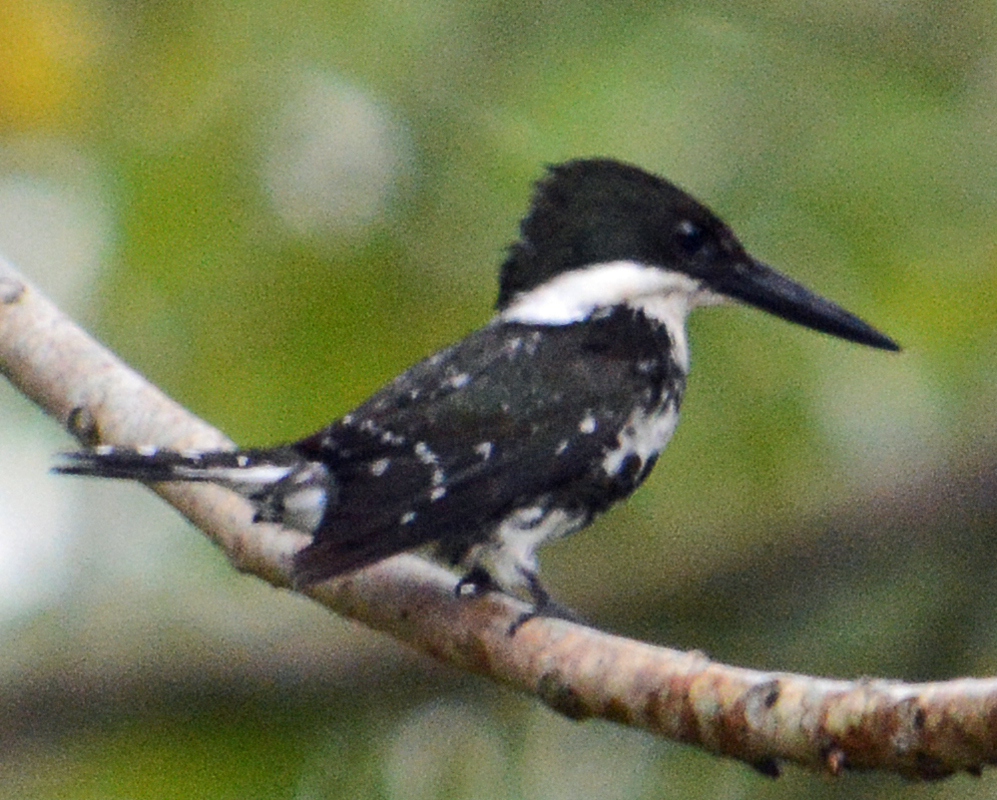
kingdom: Animalia
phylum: Chordata
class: Aves
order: Coraciiformes
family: Alcedinidae
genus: Chloroceryle
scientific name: Chloroceryle americana
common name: Green kingfisher
